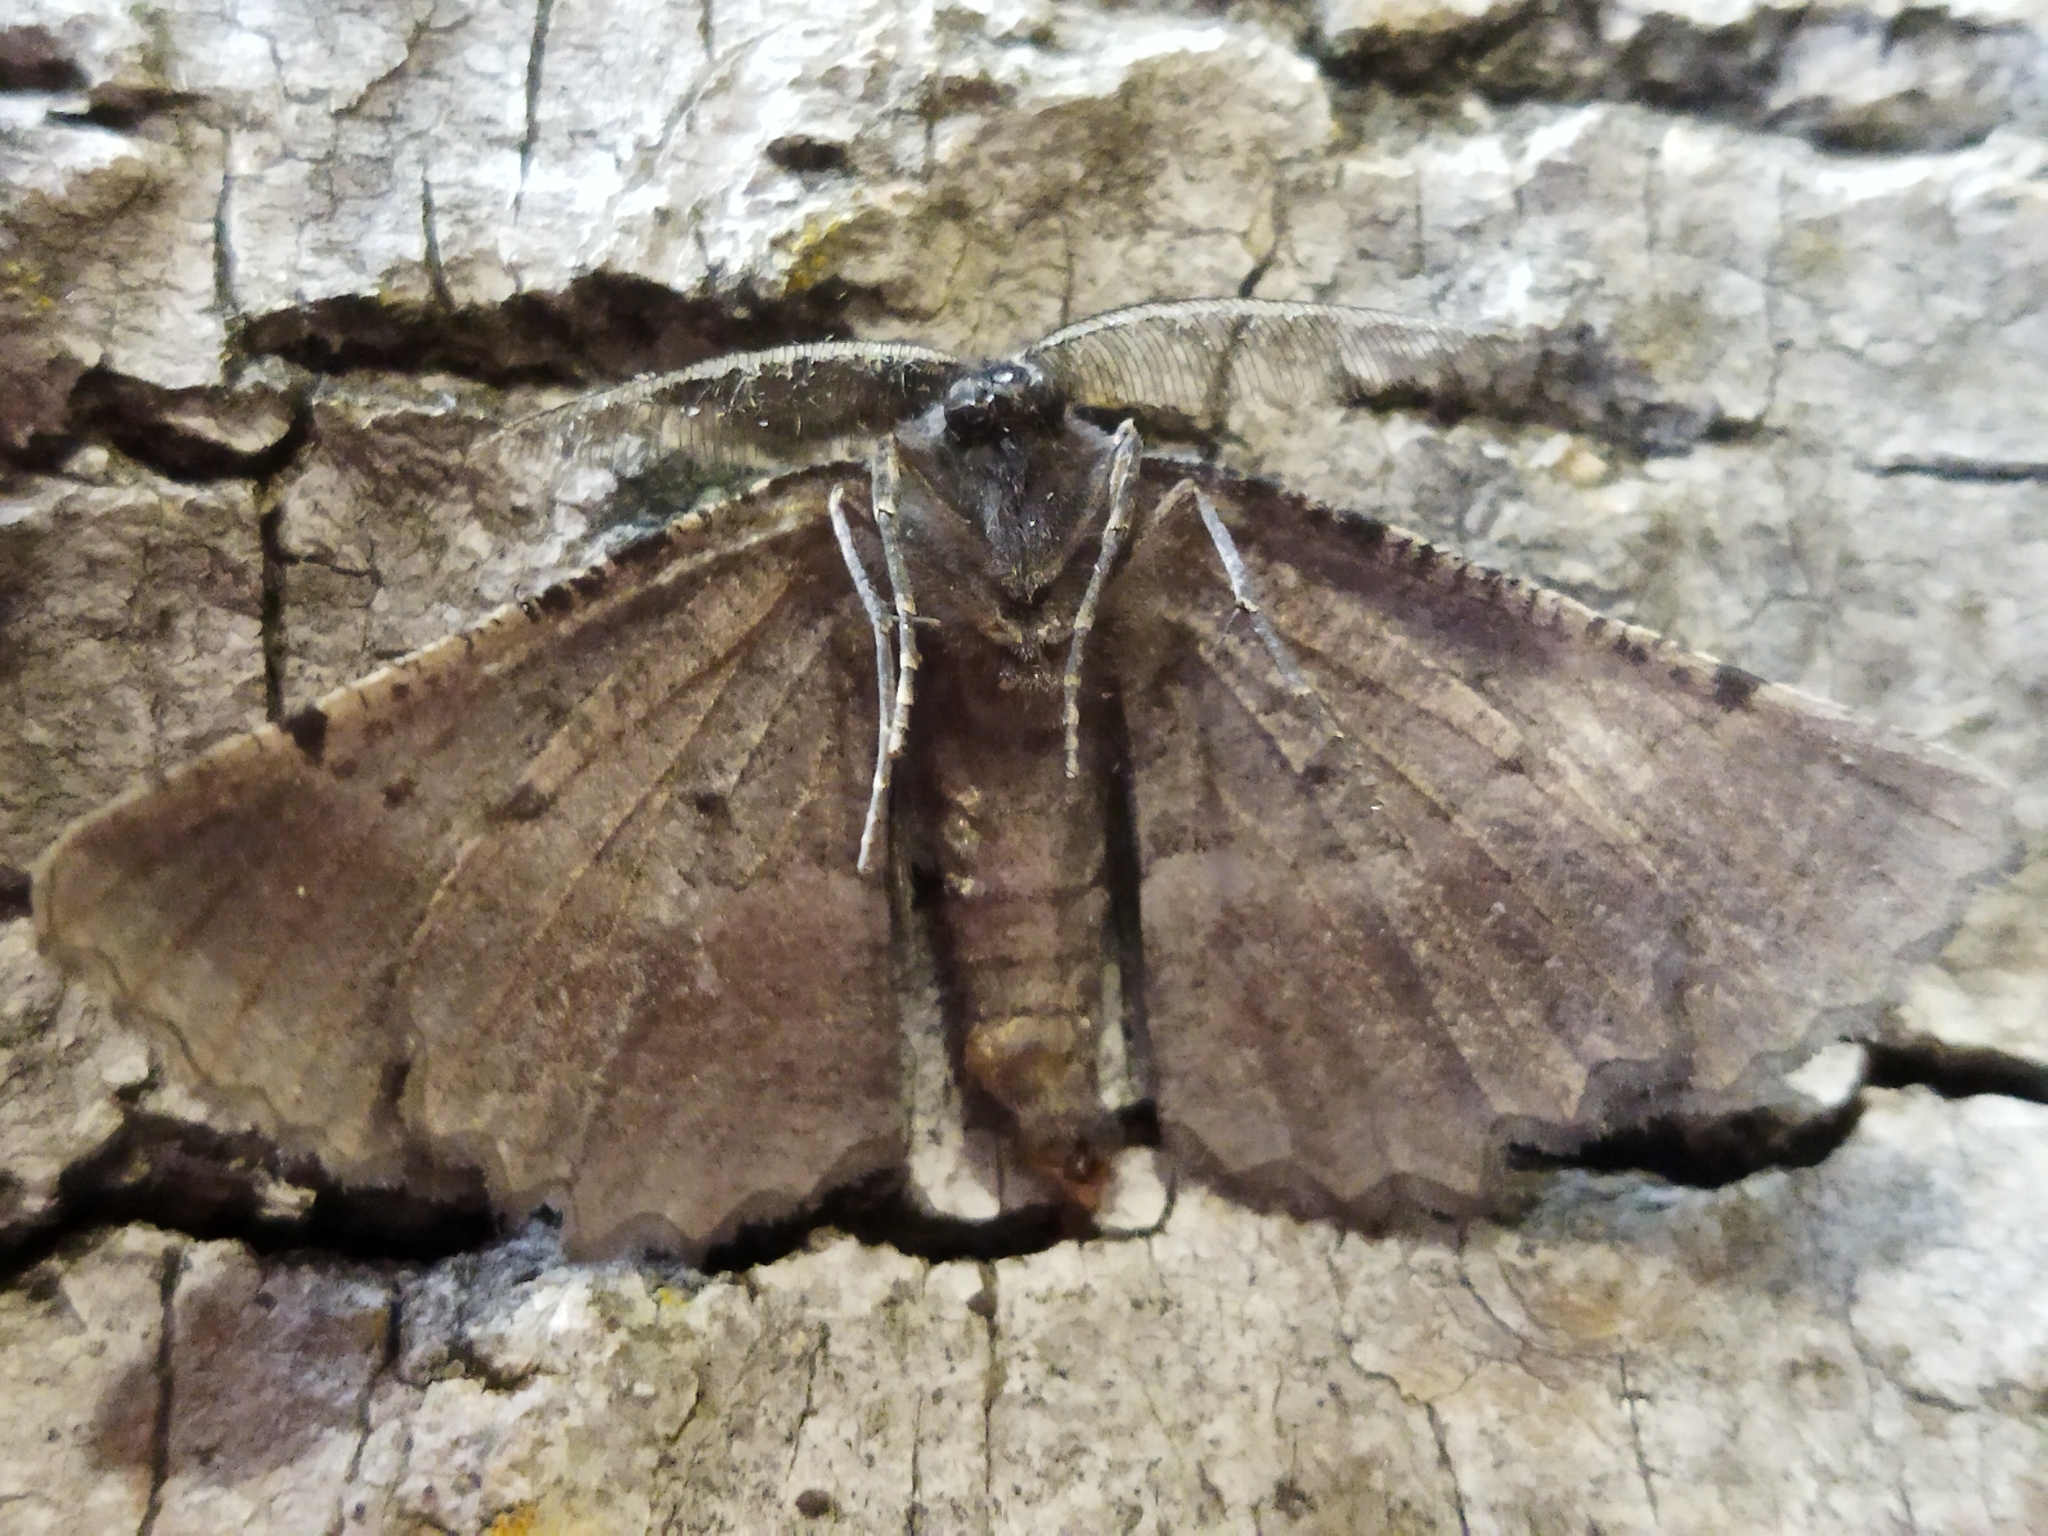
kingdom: Animalia
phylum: Arthropoda
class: Insecta
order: Lepidoptera
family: Geometridae
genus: Nychiodes
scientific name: Nychiodes waltheri
